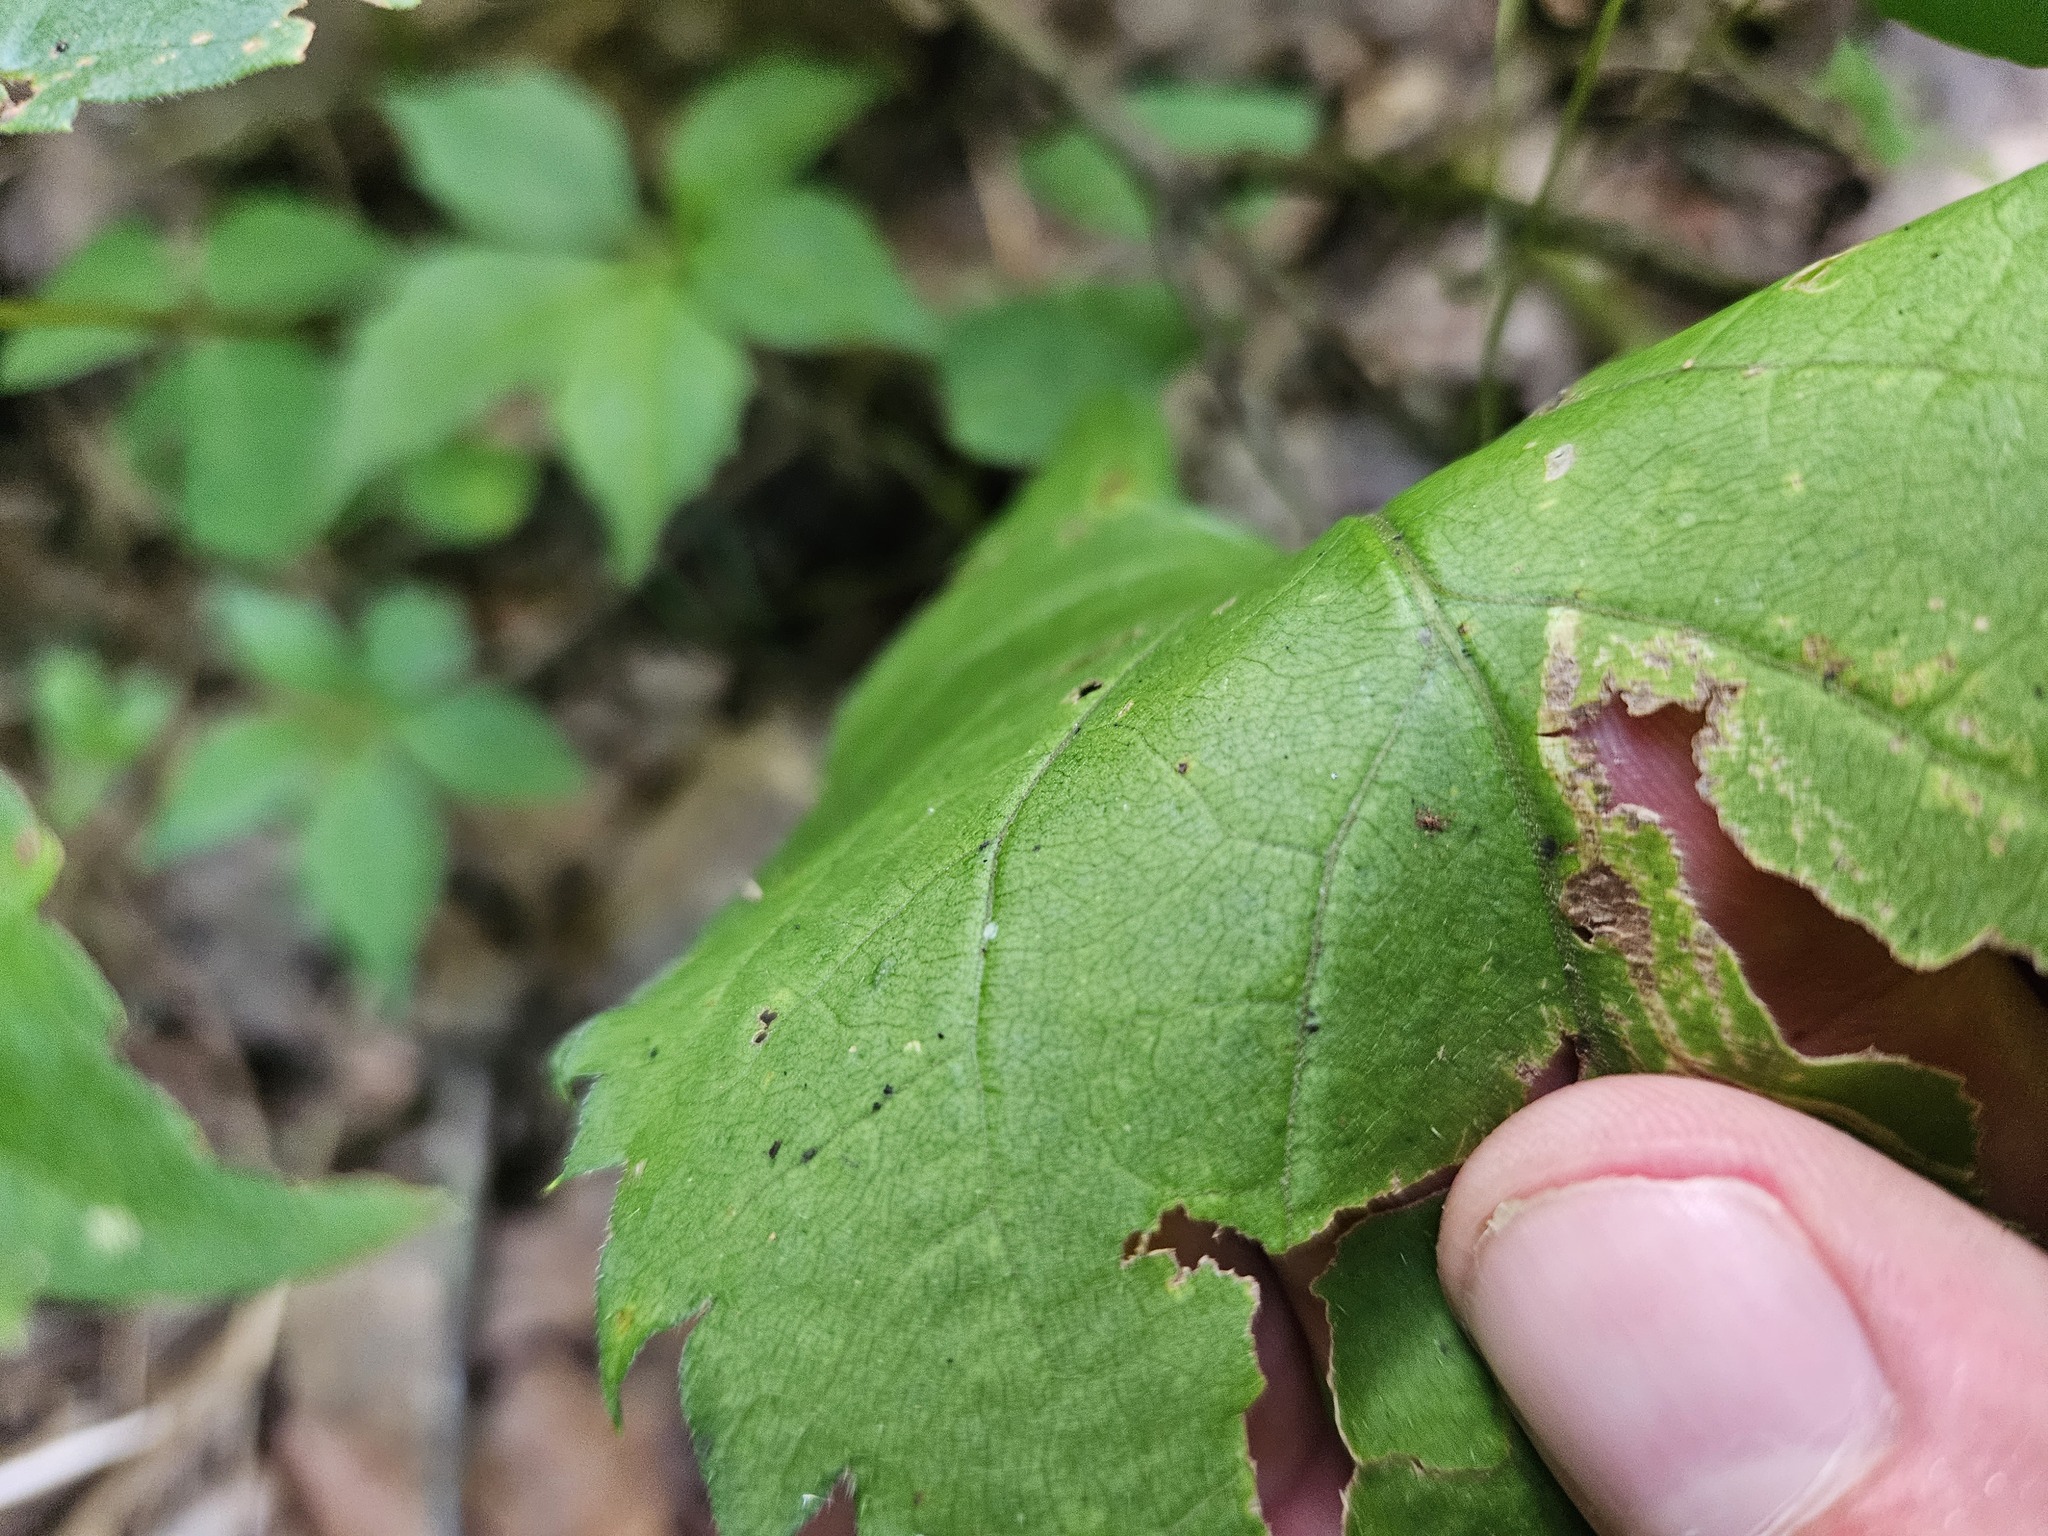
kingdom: Plantae
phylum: Tracheophyta
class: Magnoliopsida
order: Asterales
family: Asteraceae
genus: Eurybia
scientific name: Eurybia schreberi
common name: Schreber's aster
